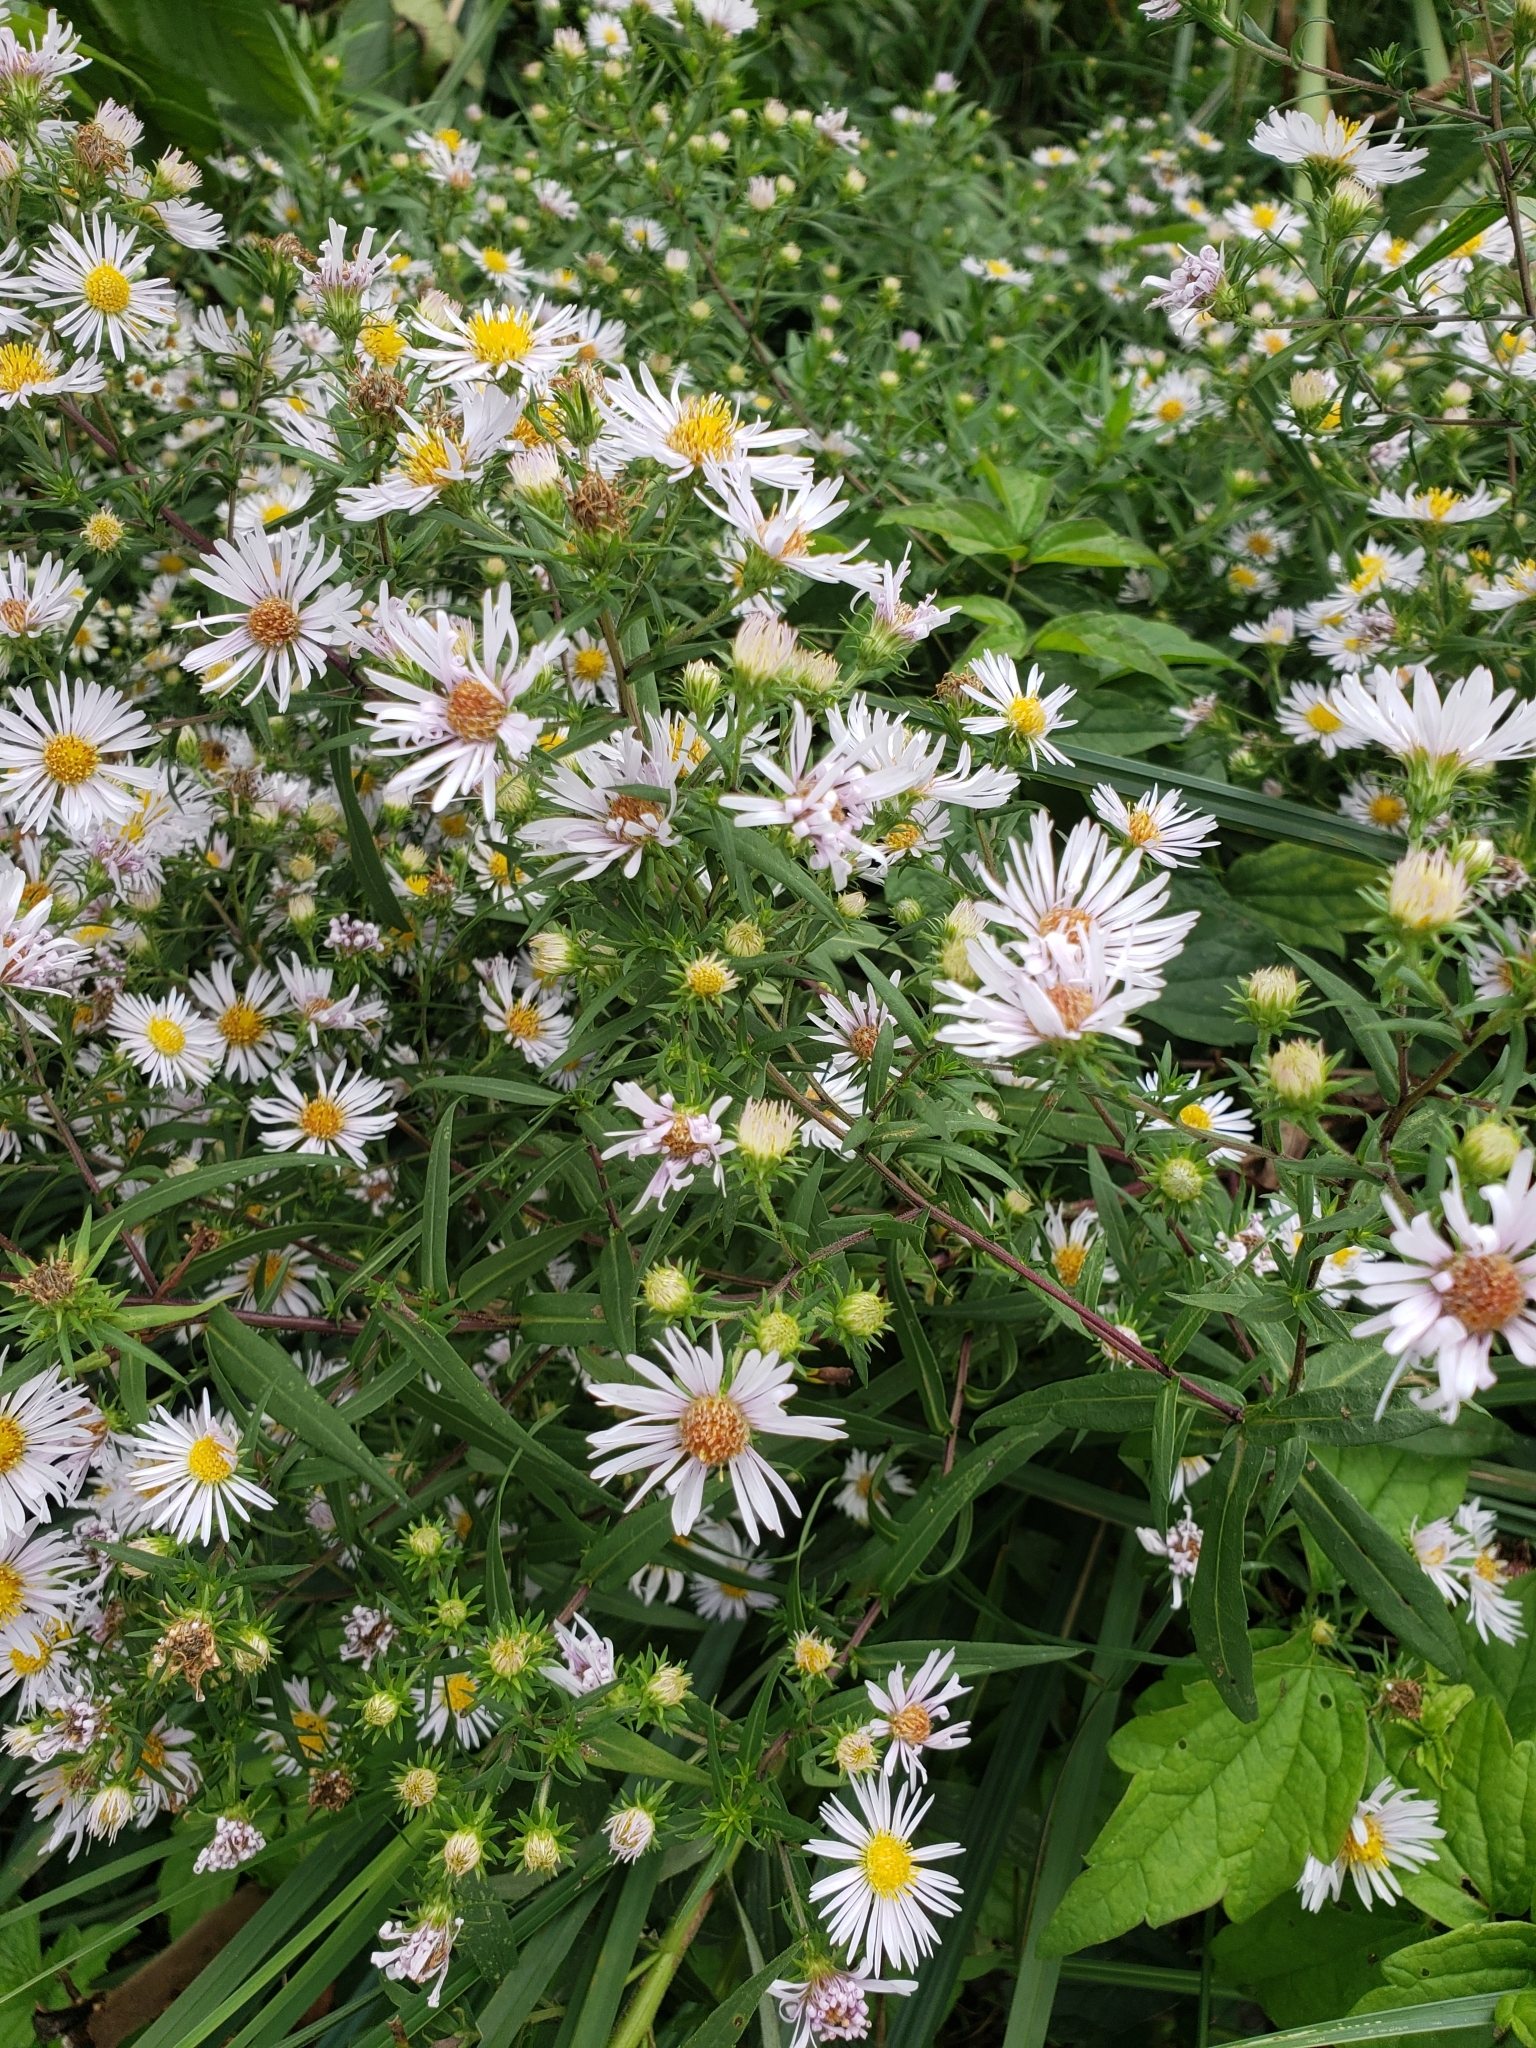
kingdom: Plantae
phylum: Tracheophyta
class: Magnoliopsida
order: Asterales
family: Asteraceae
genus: Symphyotrichum
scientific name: Symphyotrichum firmum
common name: Shining aster
